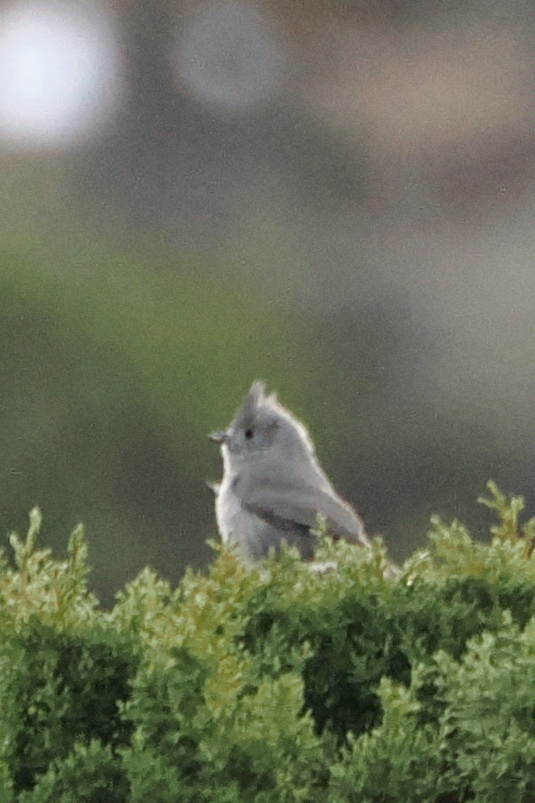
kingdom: Animalia
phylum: Chordata
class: Aves
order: Passeriformes
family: Paridae
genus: Baeolophus
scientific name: Baeolophus ridgwayi
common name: Juniper titmouse
